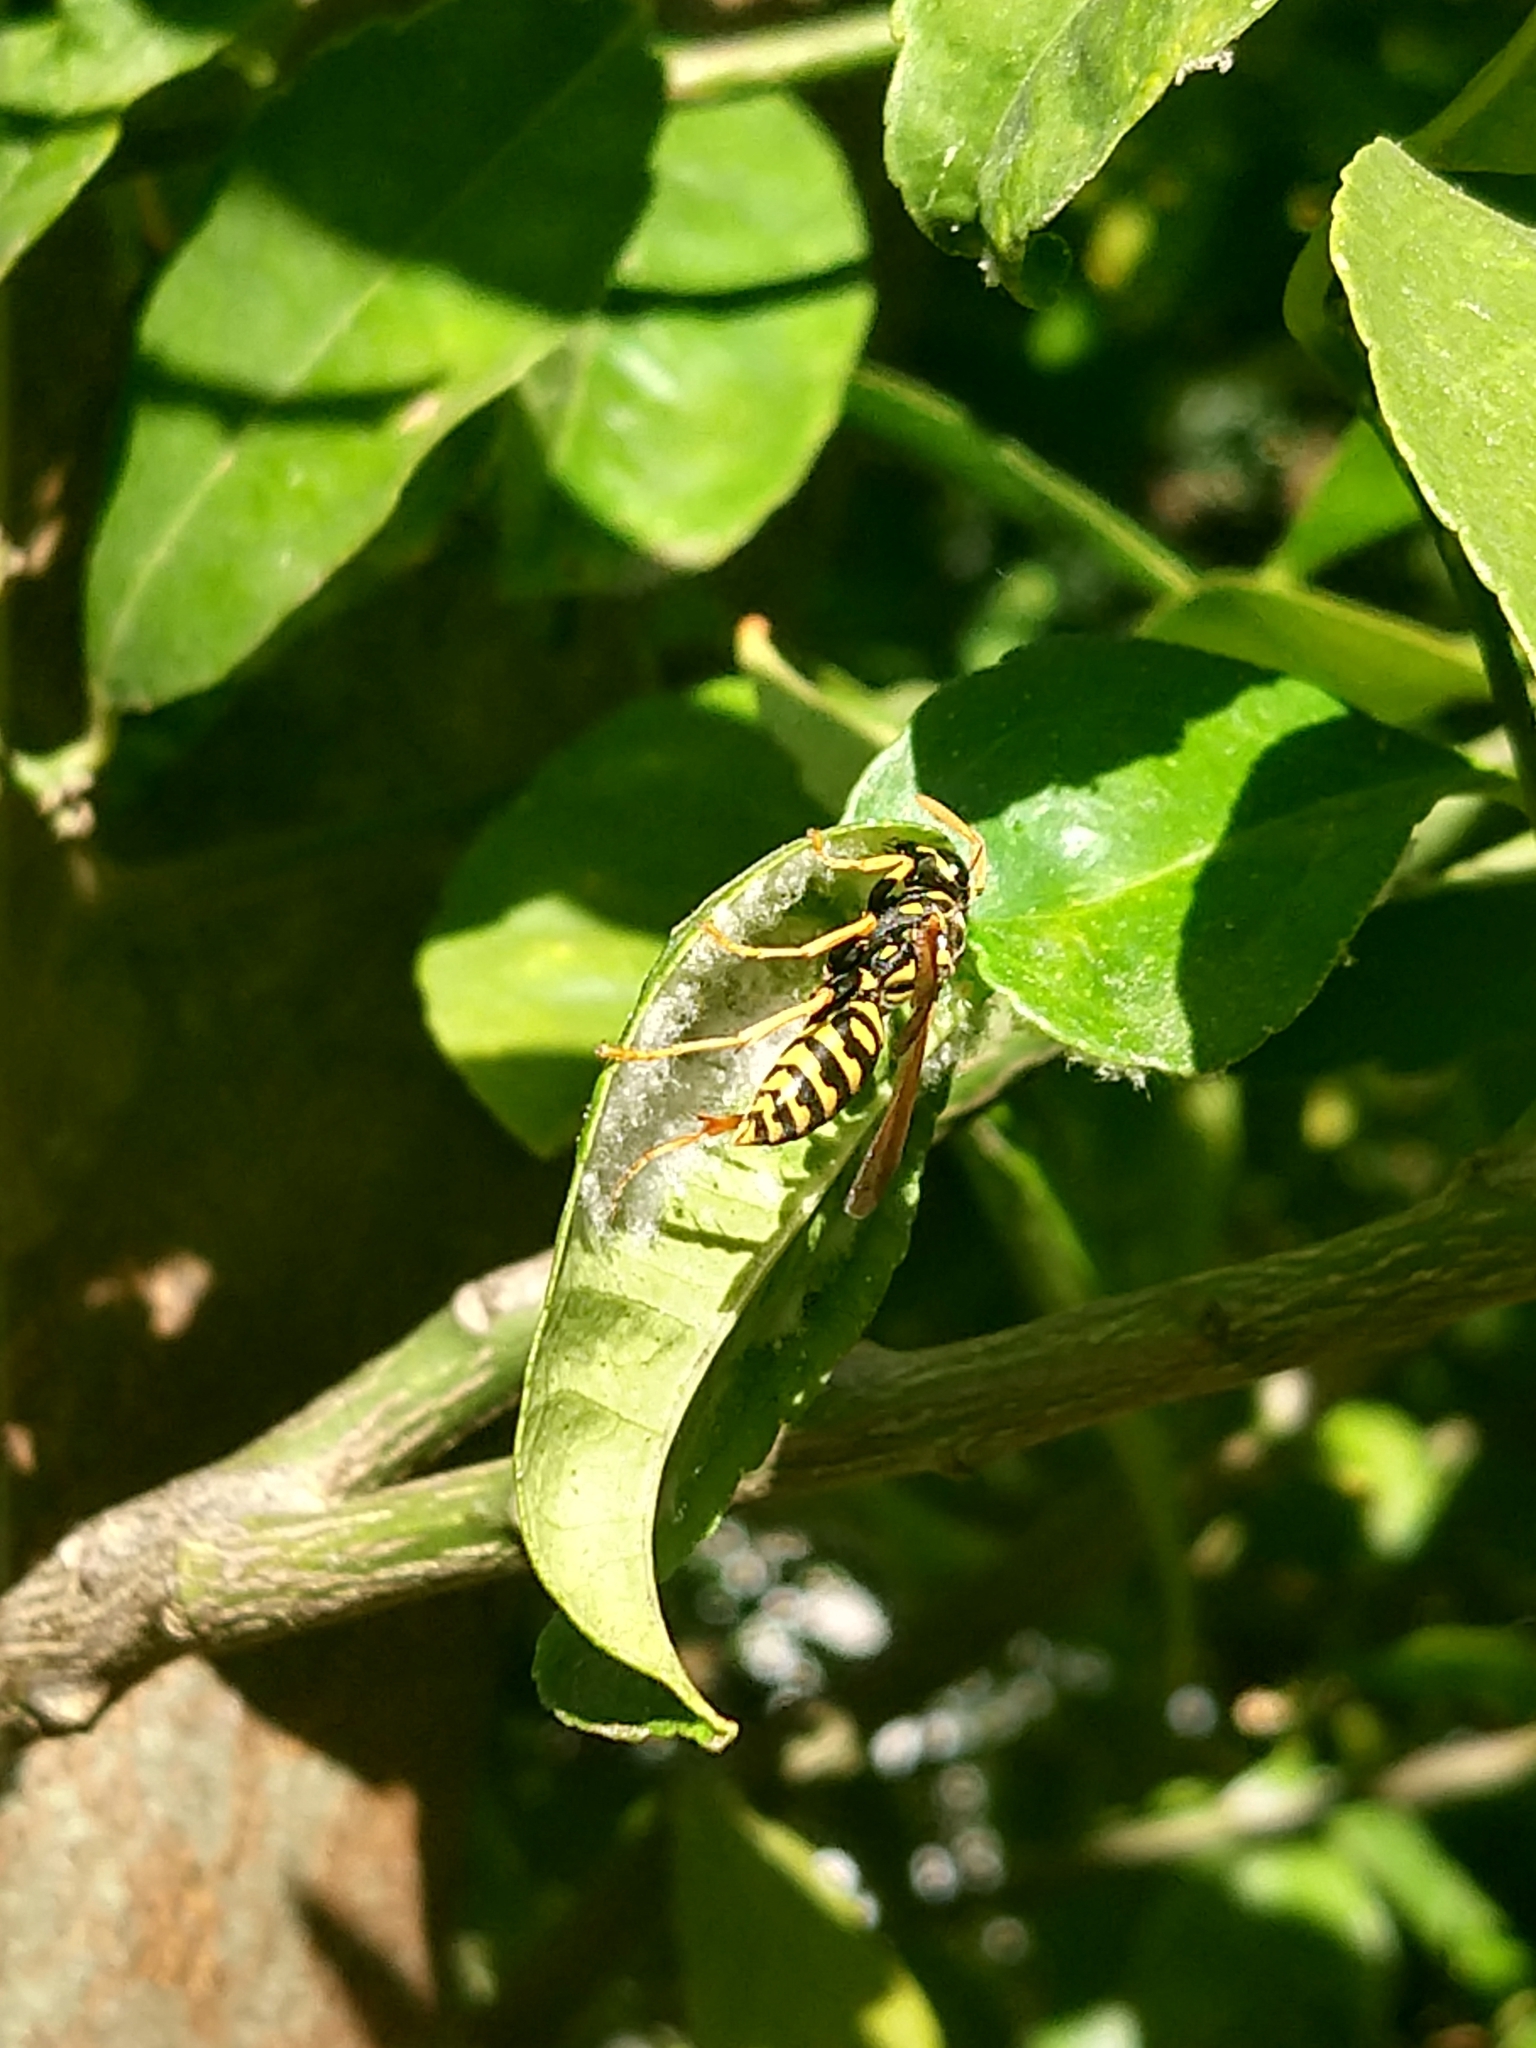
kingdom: Animalia
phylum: Arthropoda
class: Insecta
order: Hymenoptera
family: Eumenidae
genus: Polistes
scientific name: Polistes dominula
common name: Paper wasp
